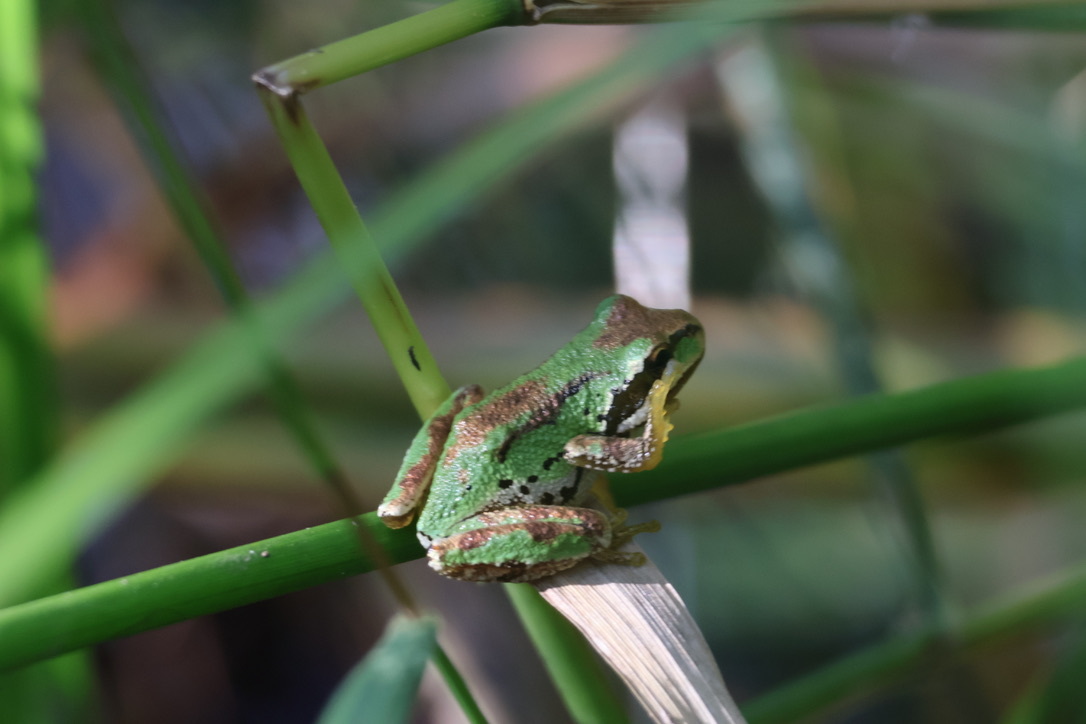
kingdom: Animalia
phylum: Chordata
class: Amphibia
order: Anura
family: Hylidae
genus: Pseudacris
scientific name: Pseudacris regilla
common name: Pacific chorus frog
